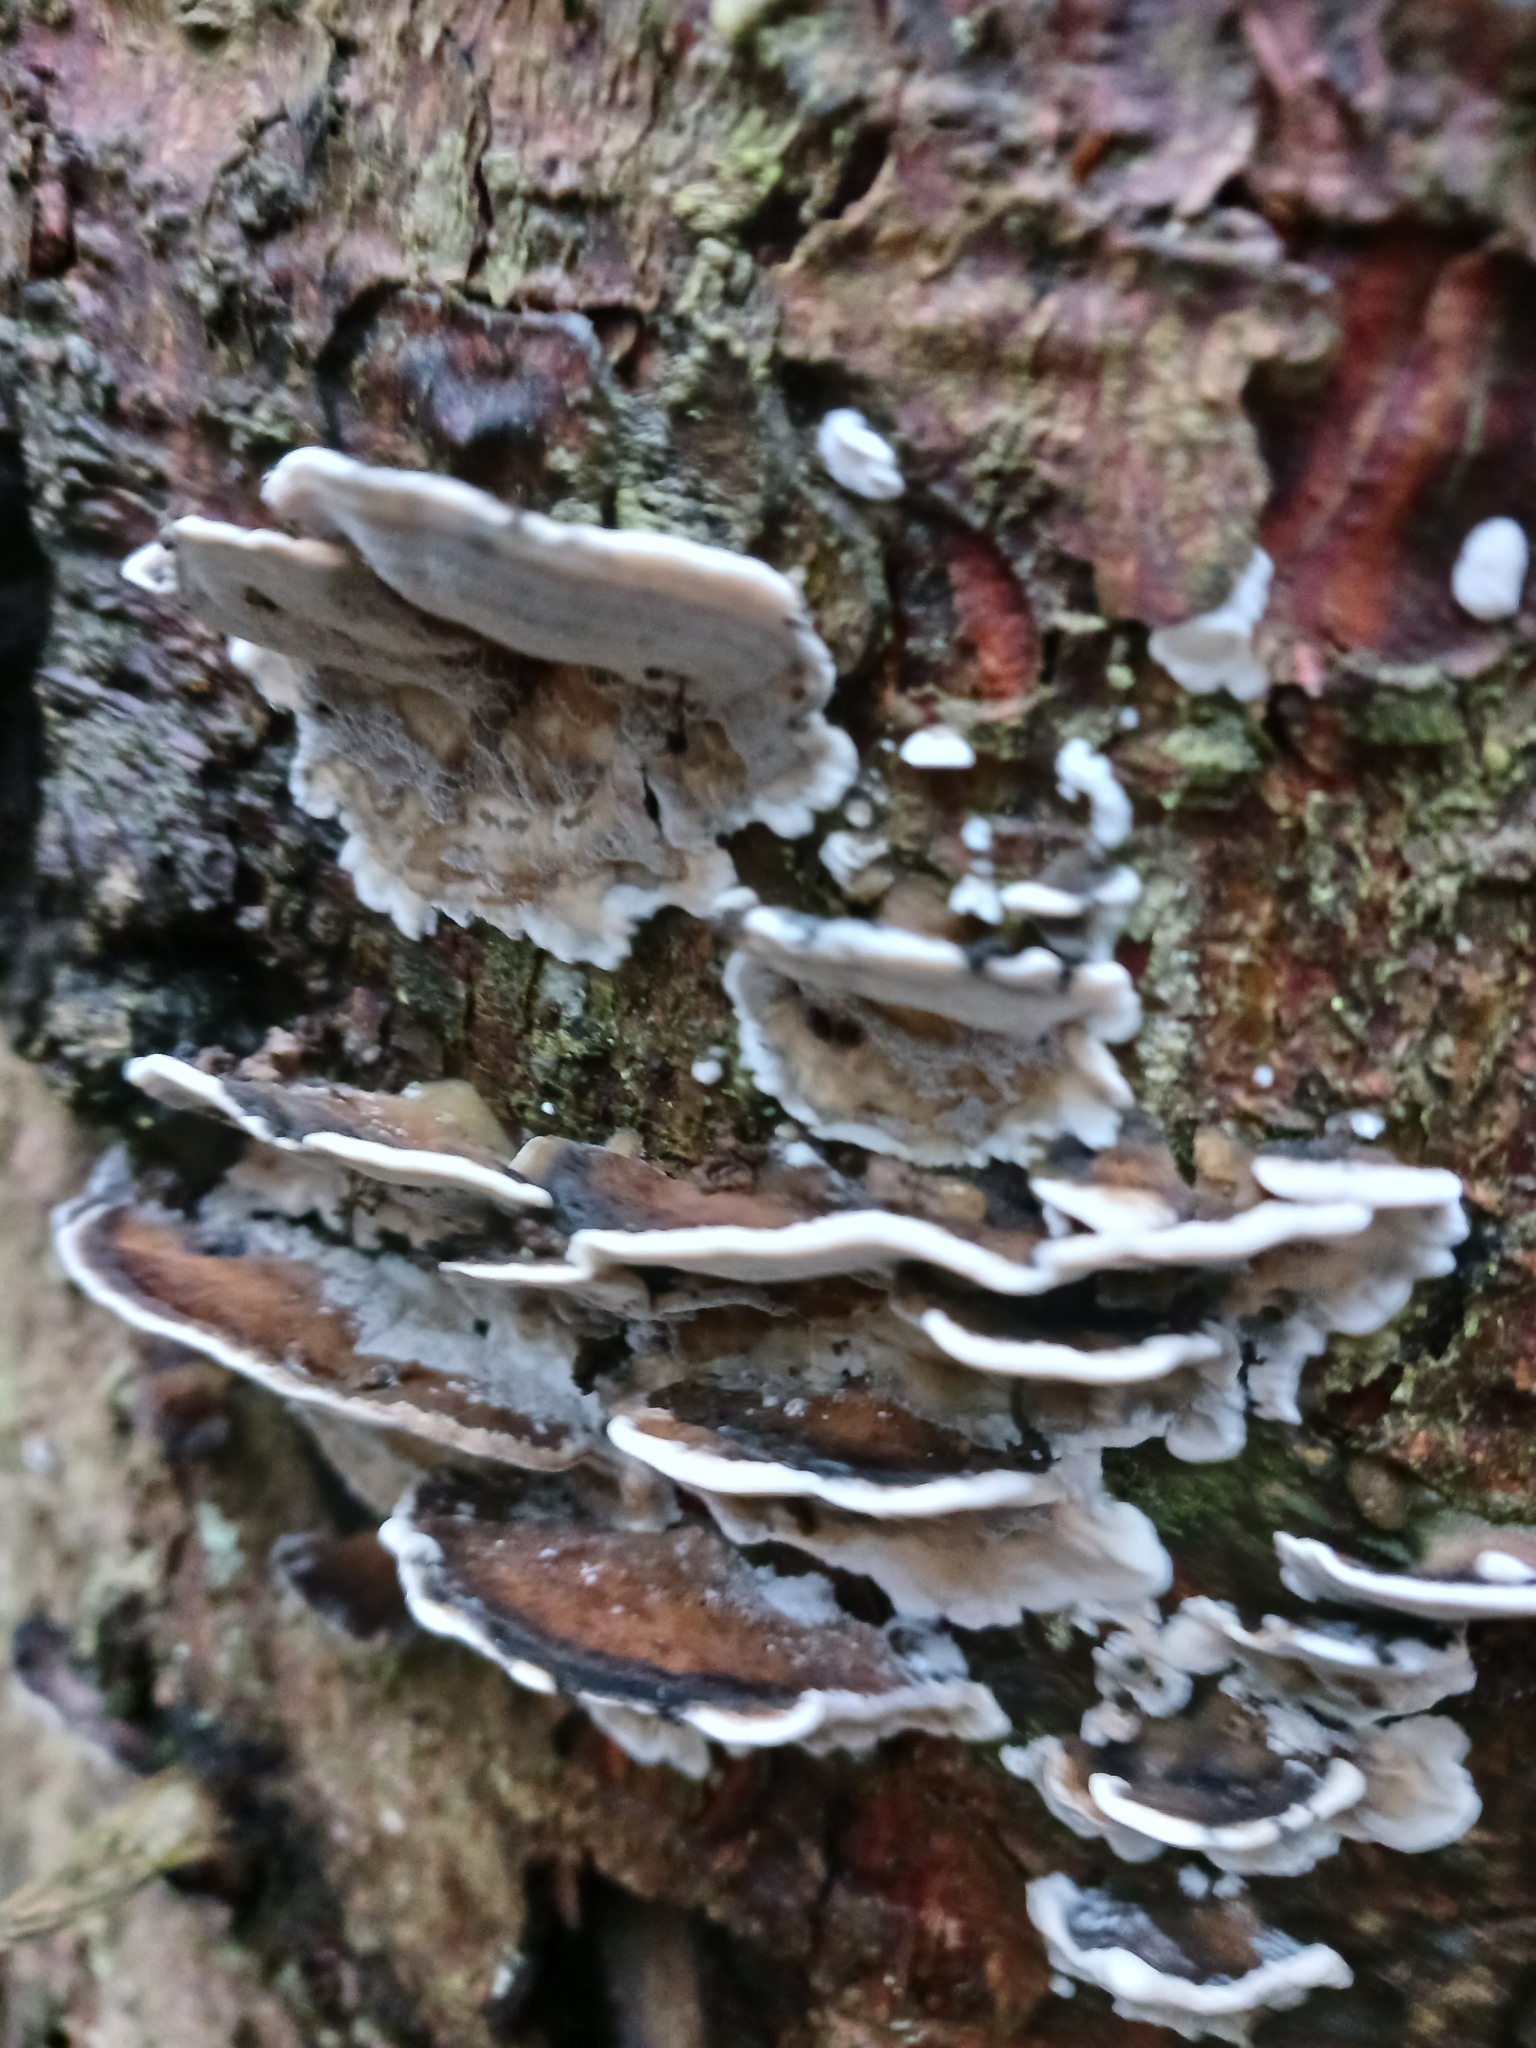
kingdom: Fungi
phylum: Basidiomycota
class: Agaricomycetes
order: Polyporales
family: Phanerochaetaceae
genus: Bjerkandera
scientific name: Bjerkandera adusta
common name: Smoky bracket
